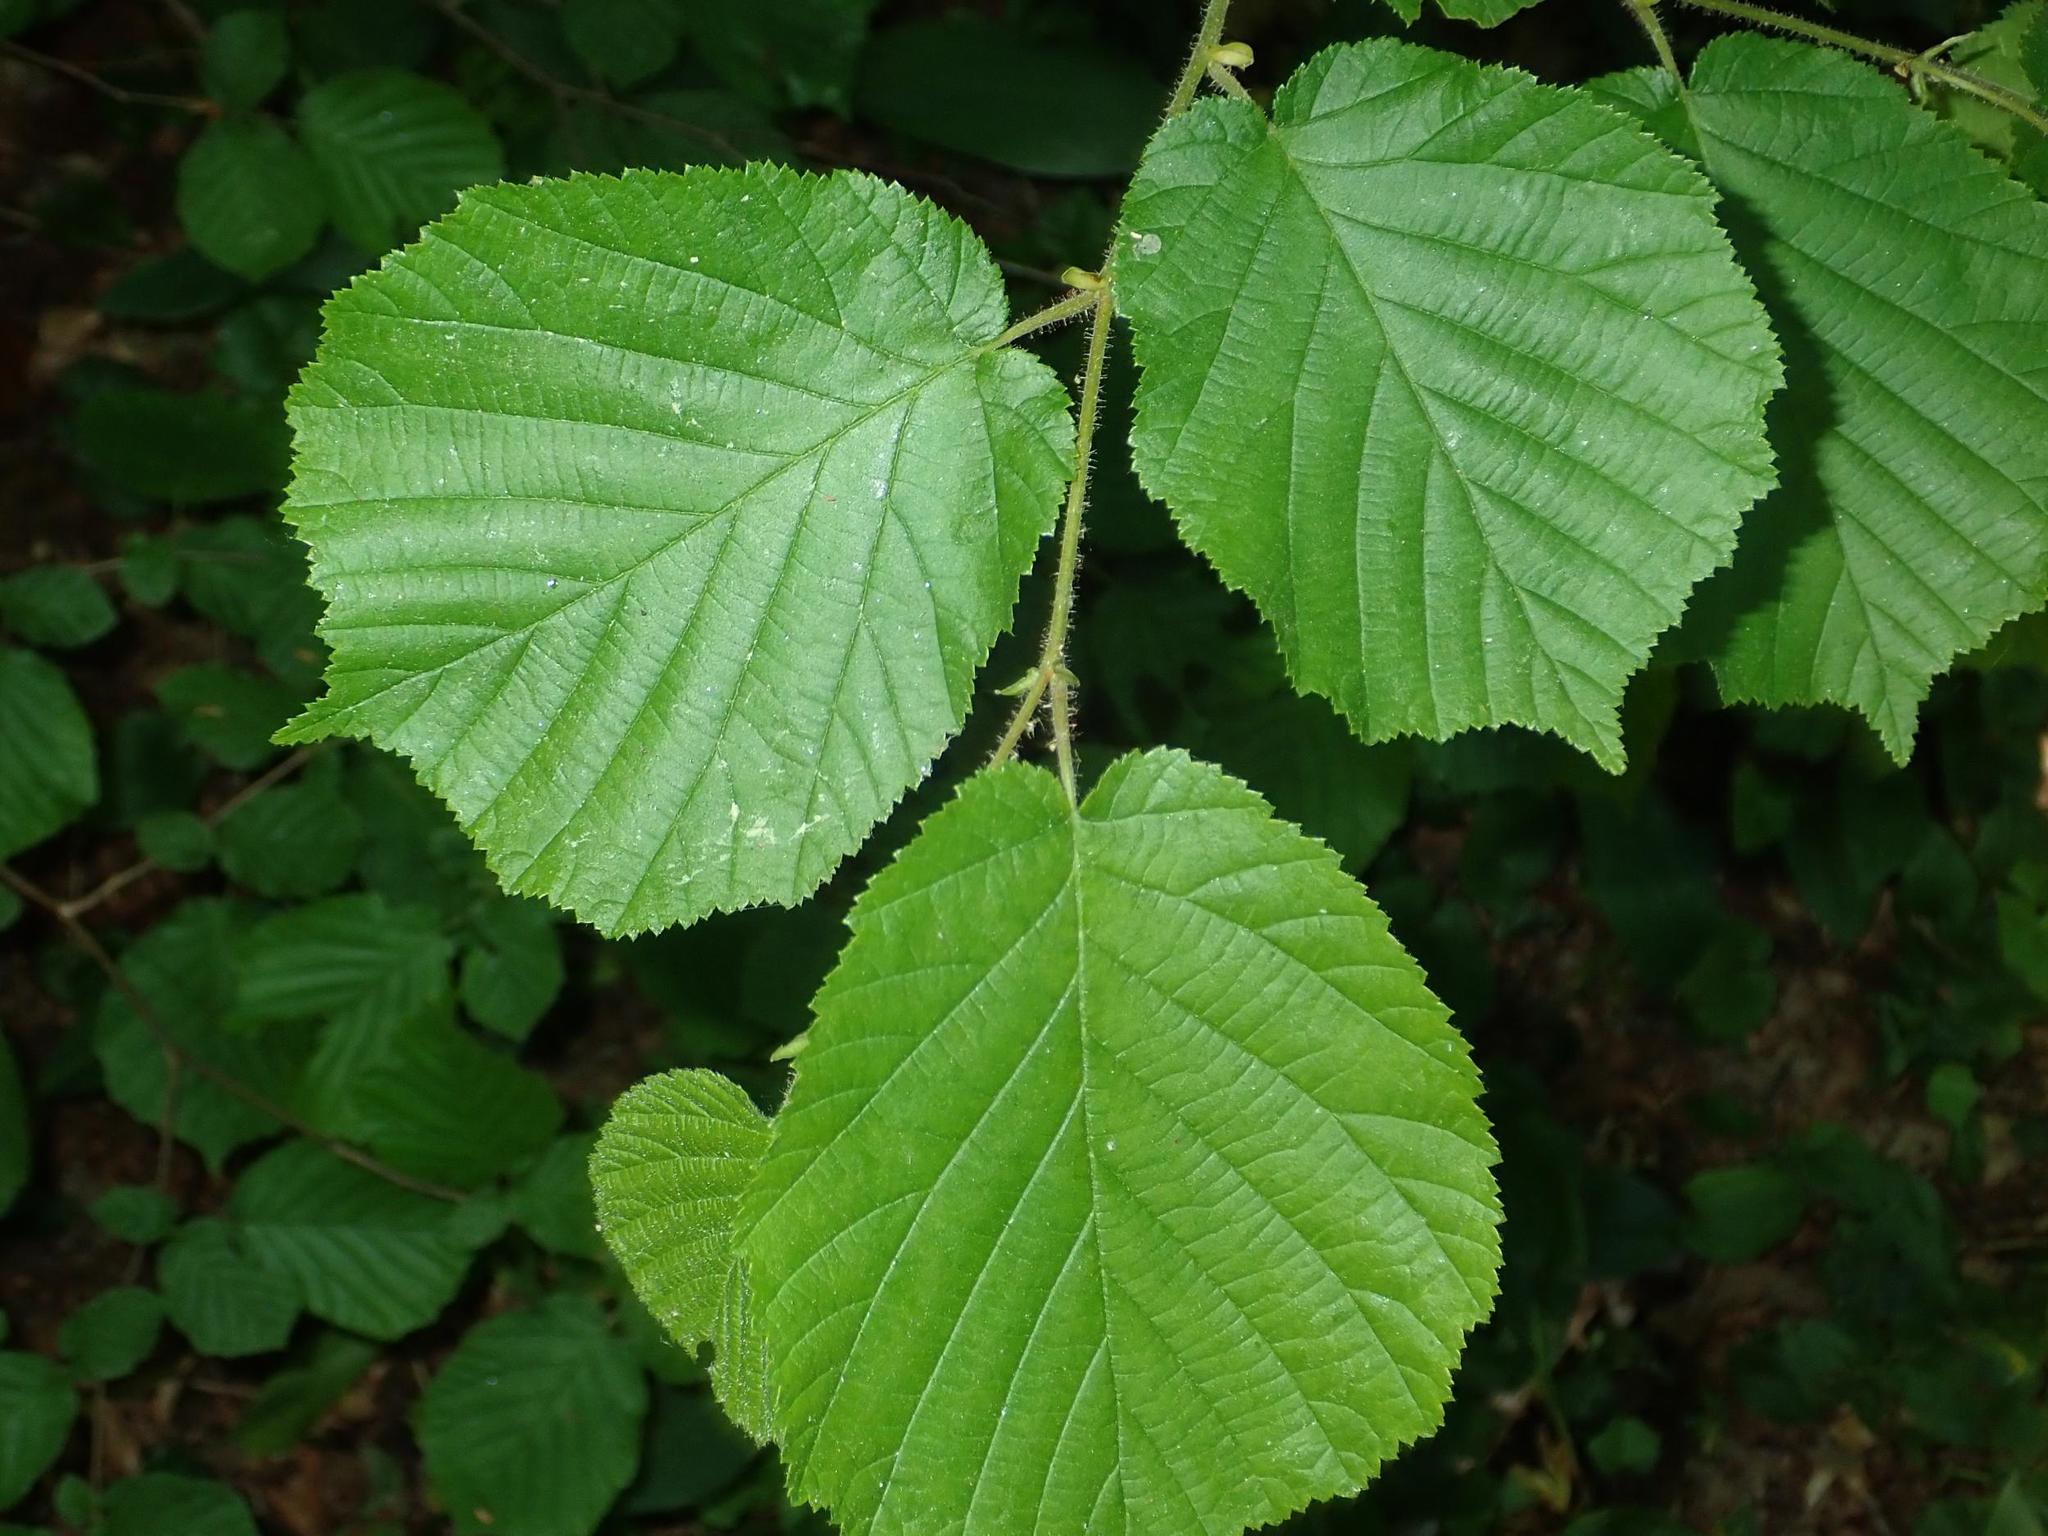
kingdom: Plantae
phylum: Tracheophyta
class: Magnoliopsida
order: Fagales
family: Betulaceae
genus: Corylus
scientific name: Corylus avellana
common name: European hazel
